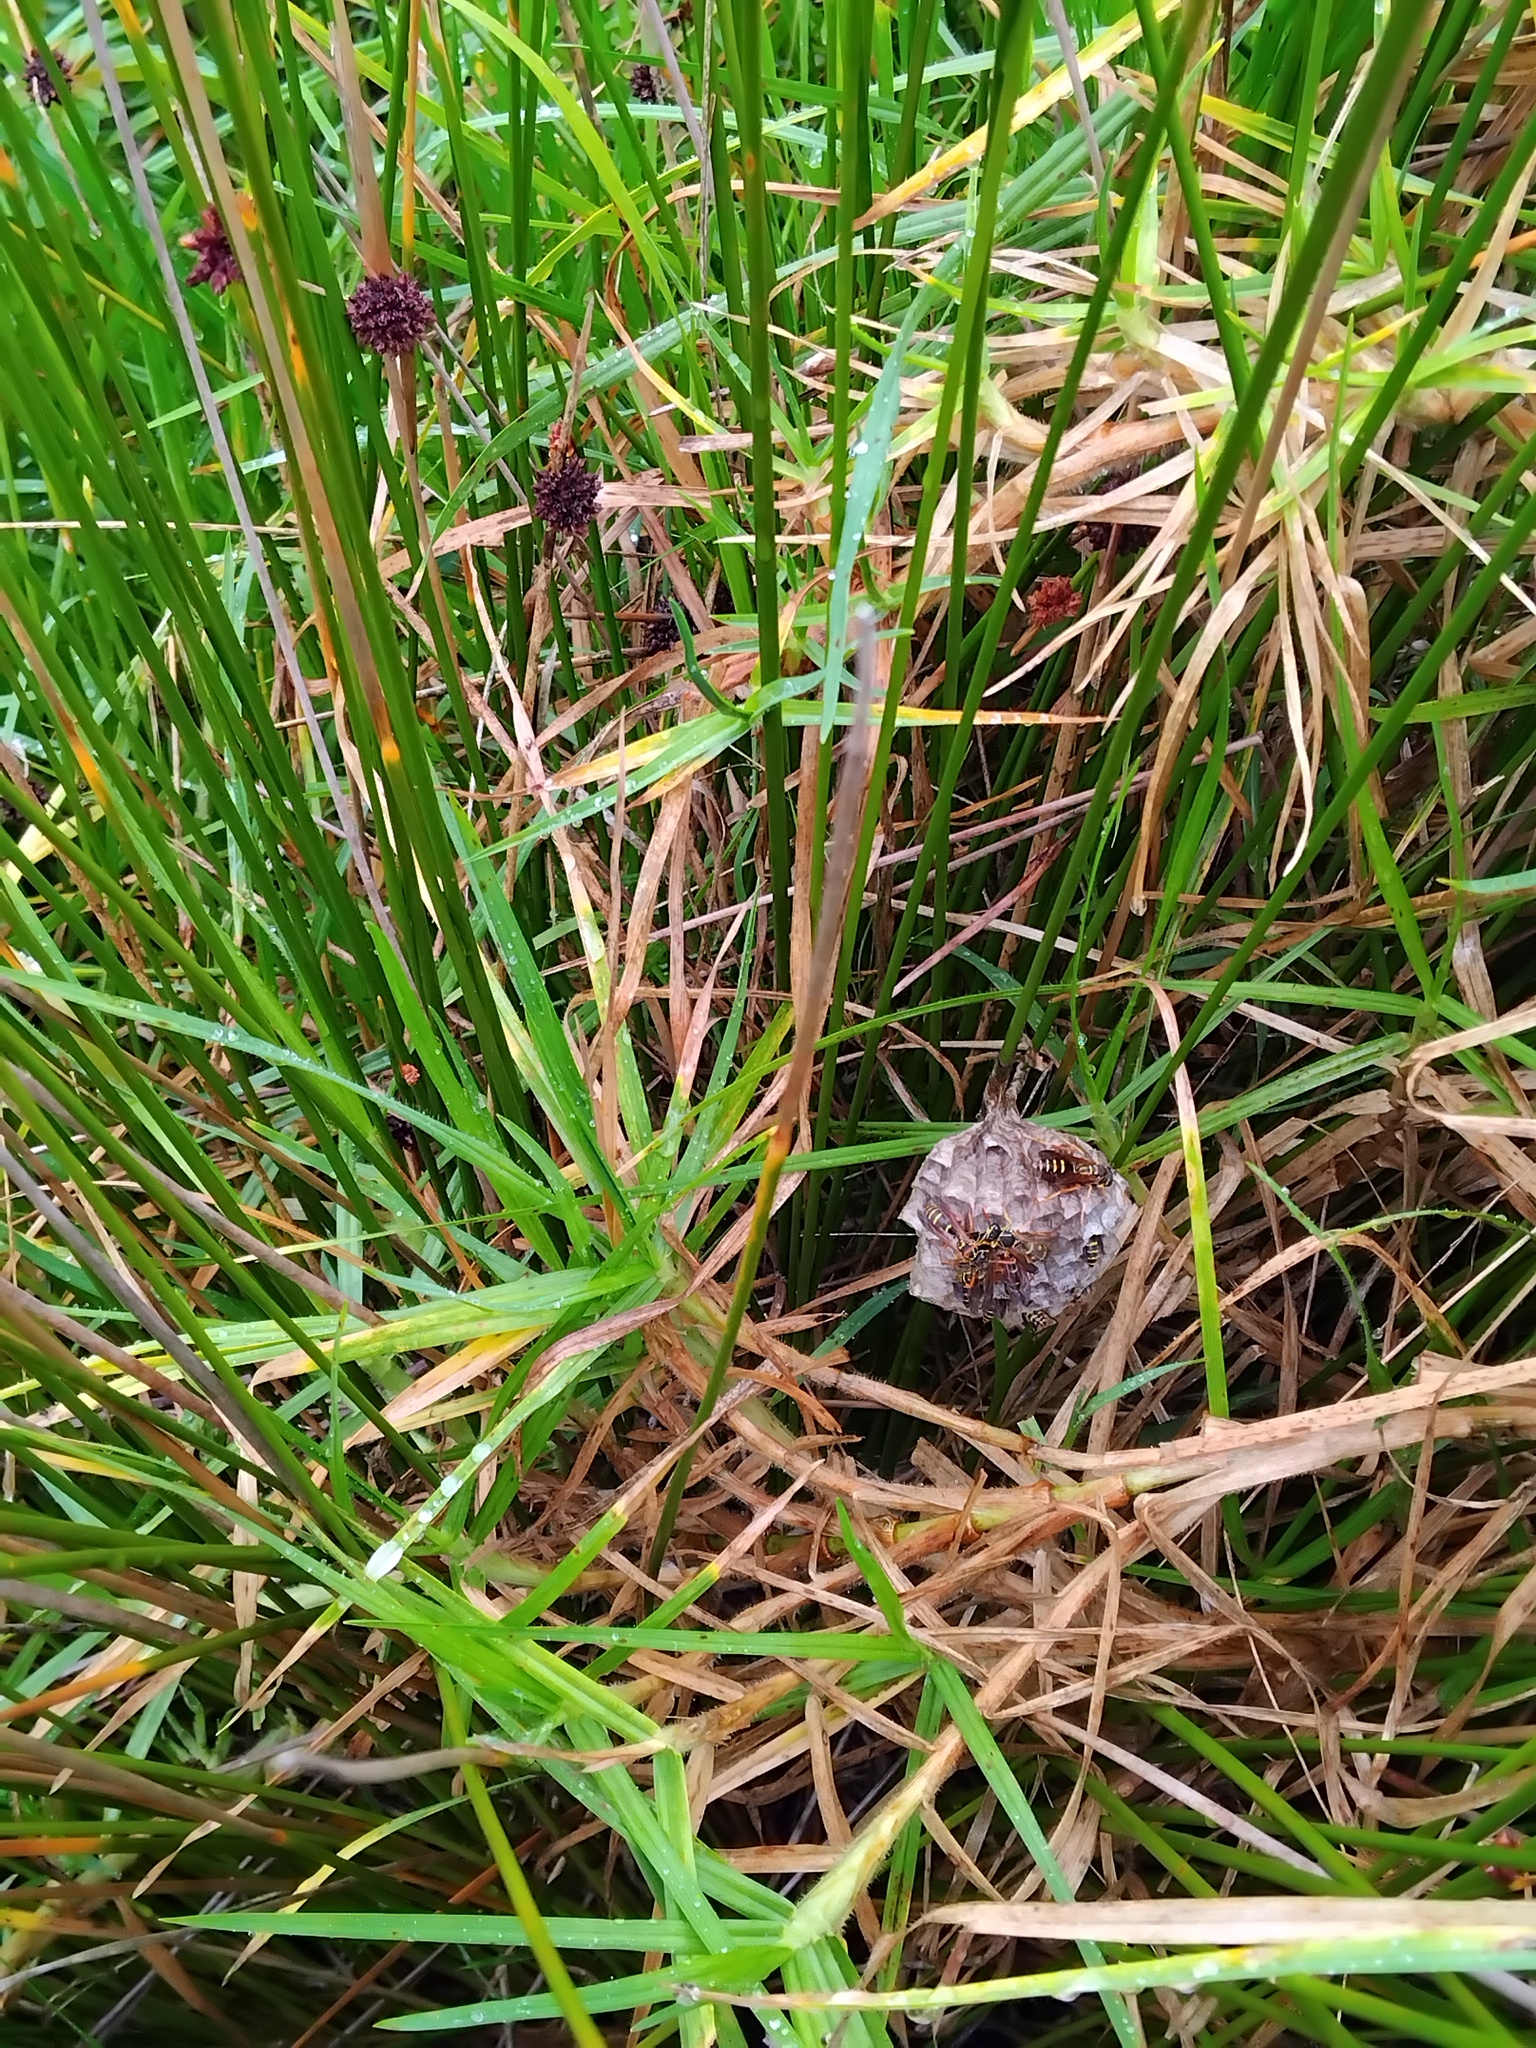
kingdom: Animalia
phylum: Arthropoda
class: Insecta
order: Hymenoptera
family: Eumenidae
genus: Polistes
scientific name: Polistes chinensis
